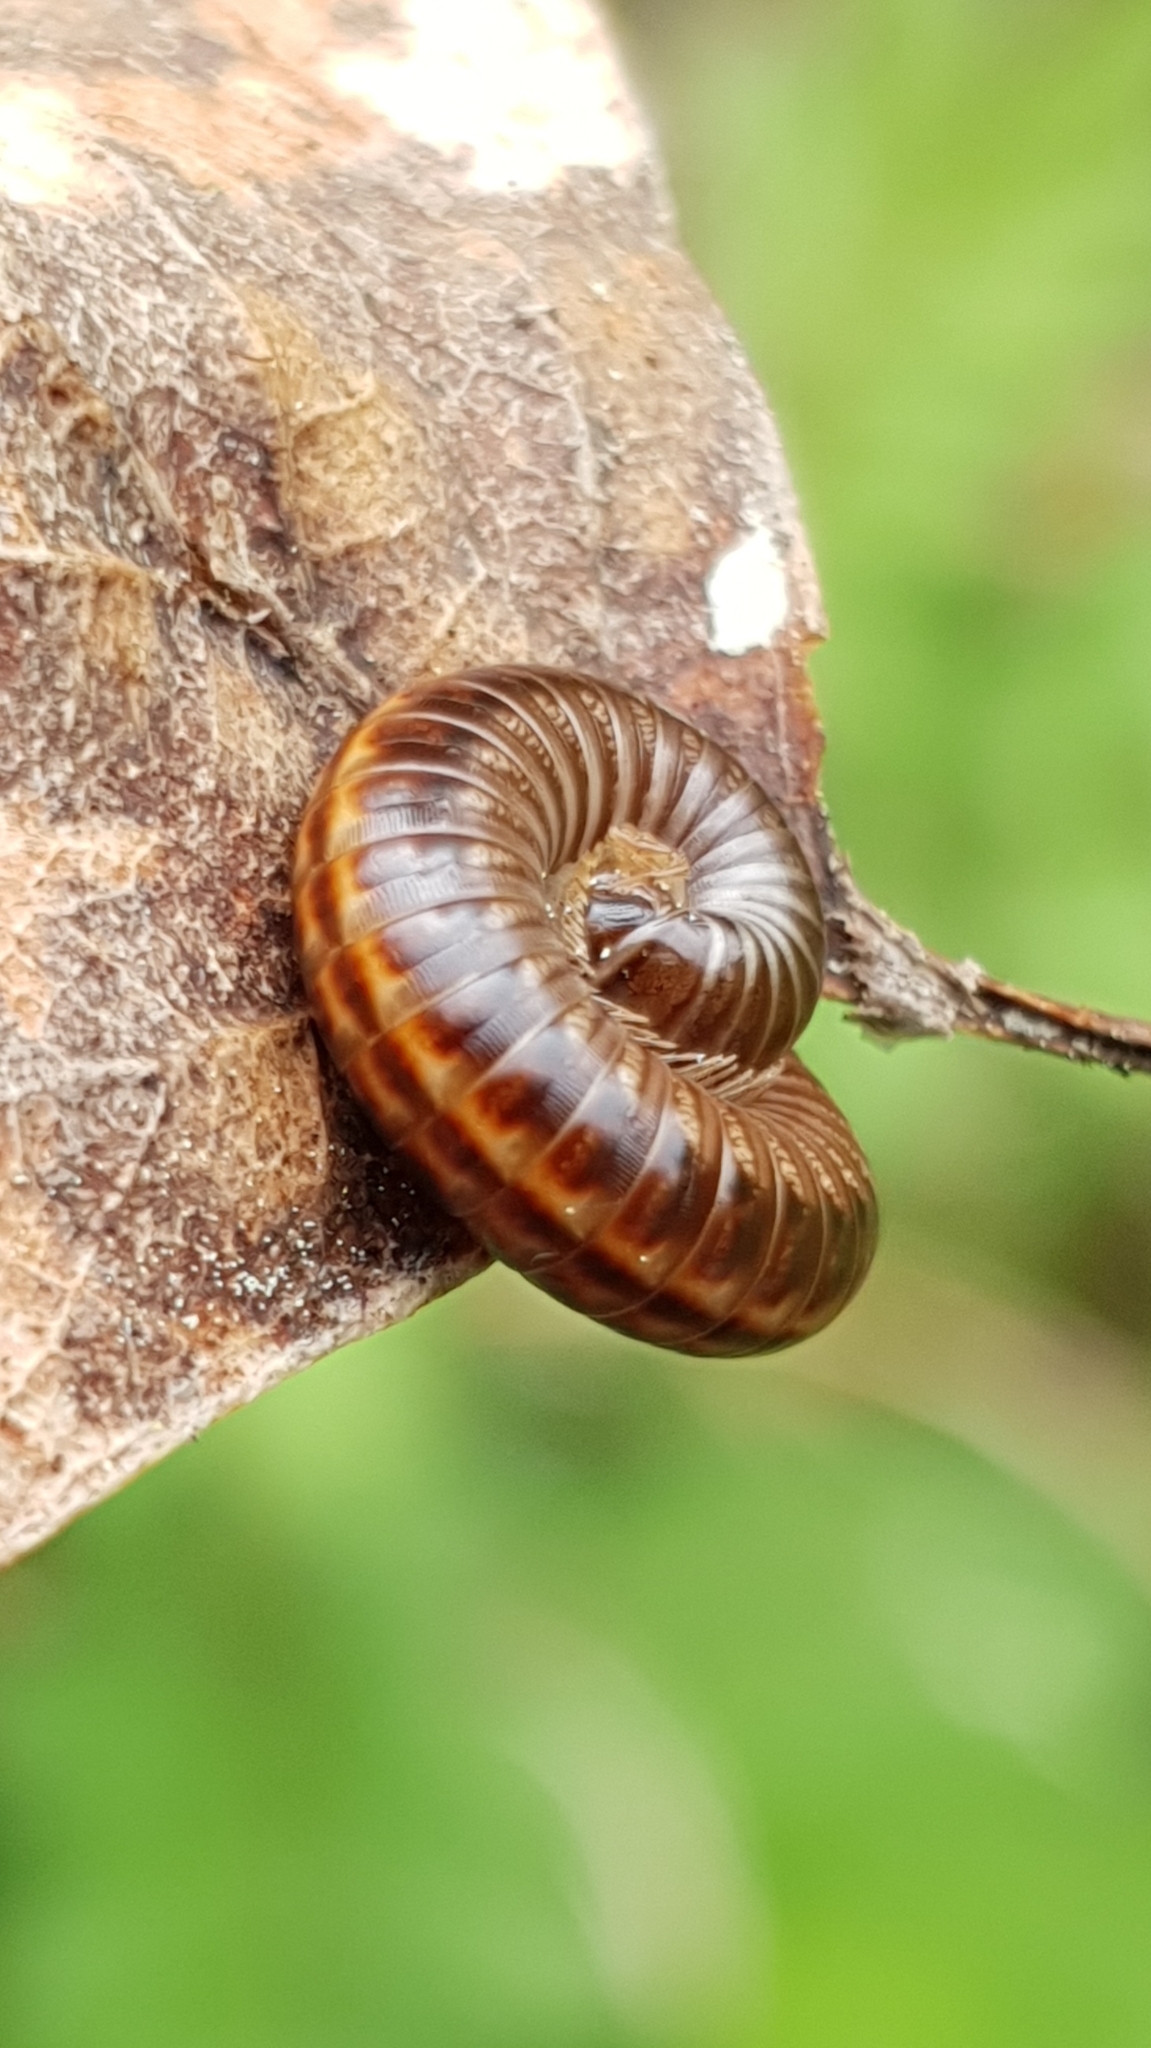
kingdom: Animalia
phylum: Arthropoda
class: Diplopoda
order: Julida
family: Julidae
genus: Ommatoiulus
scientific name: Ommatoiulus sabulosus
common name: Striped millipede
